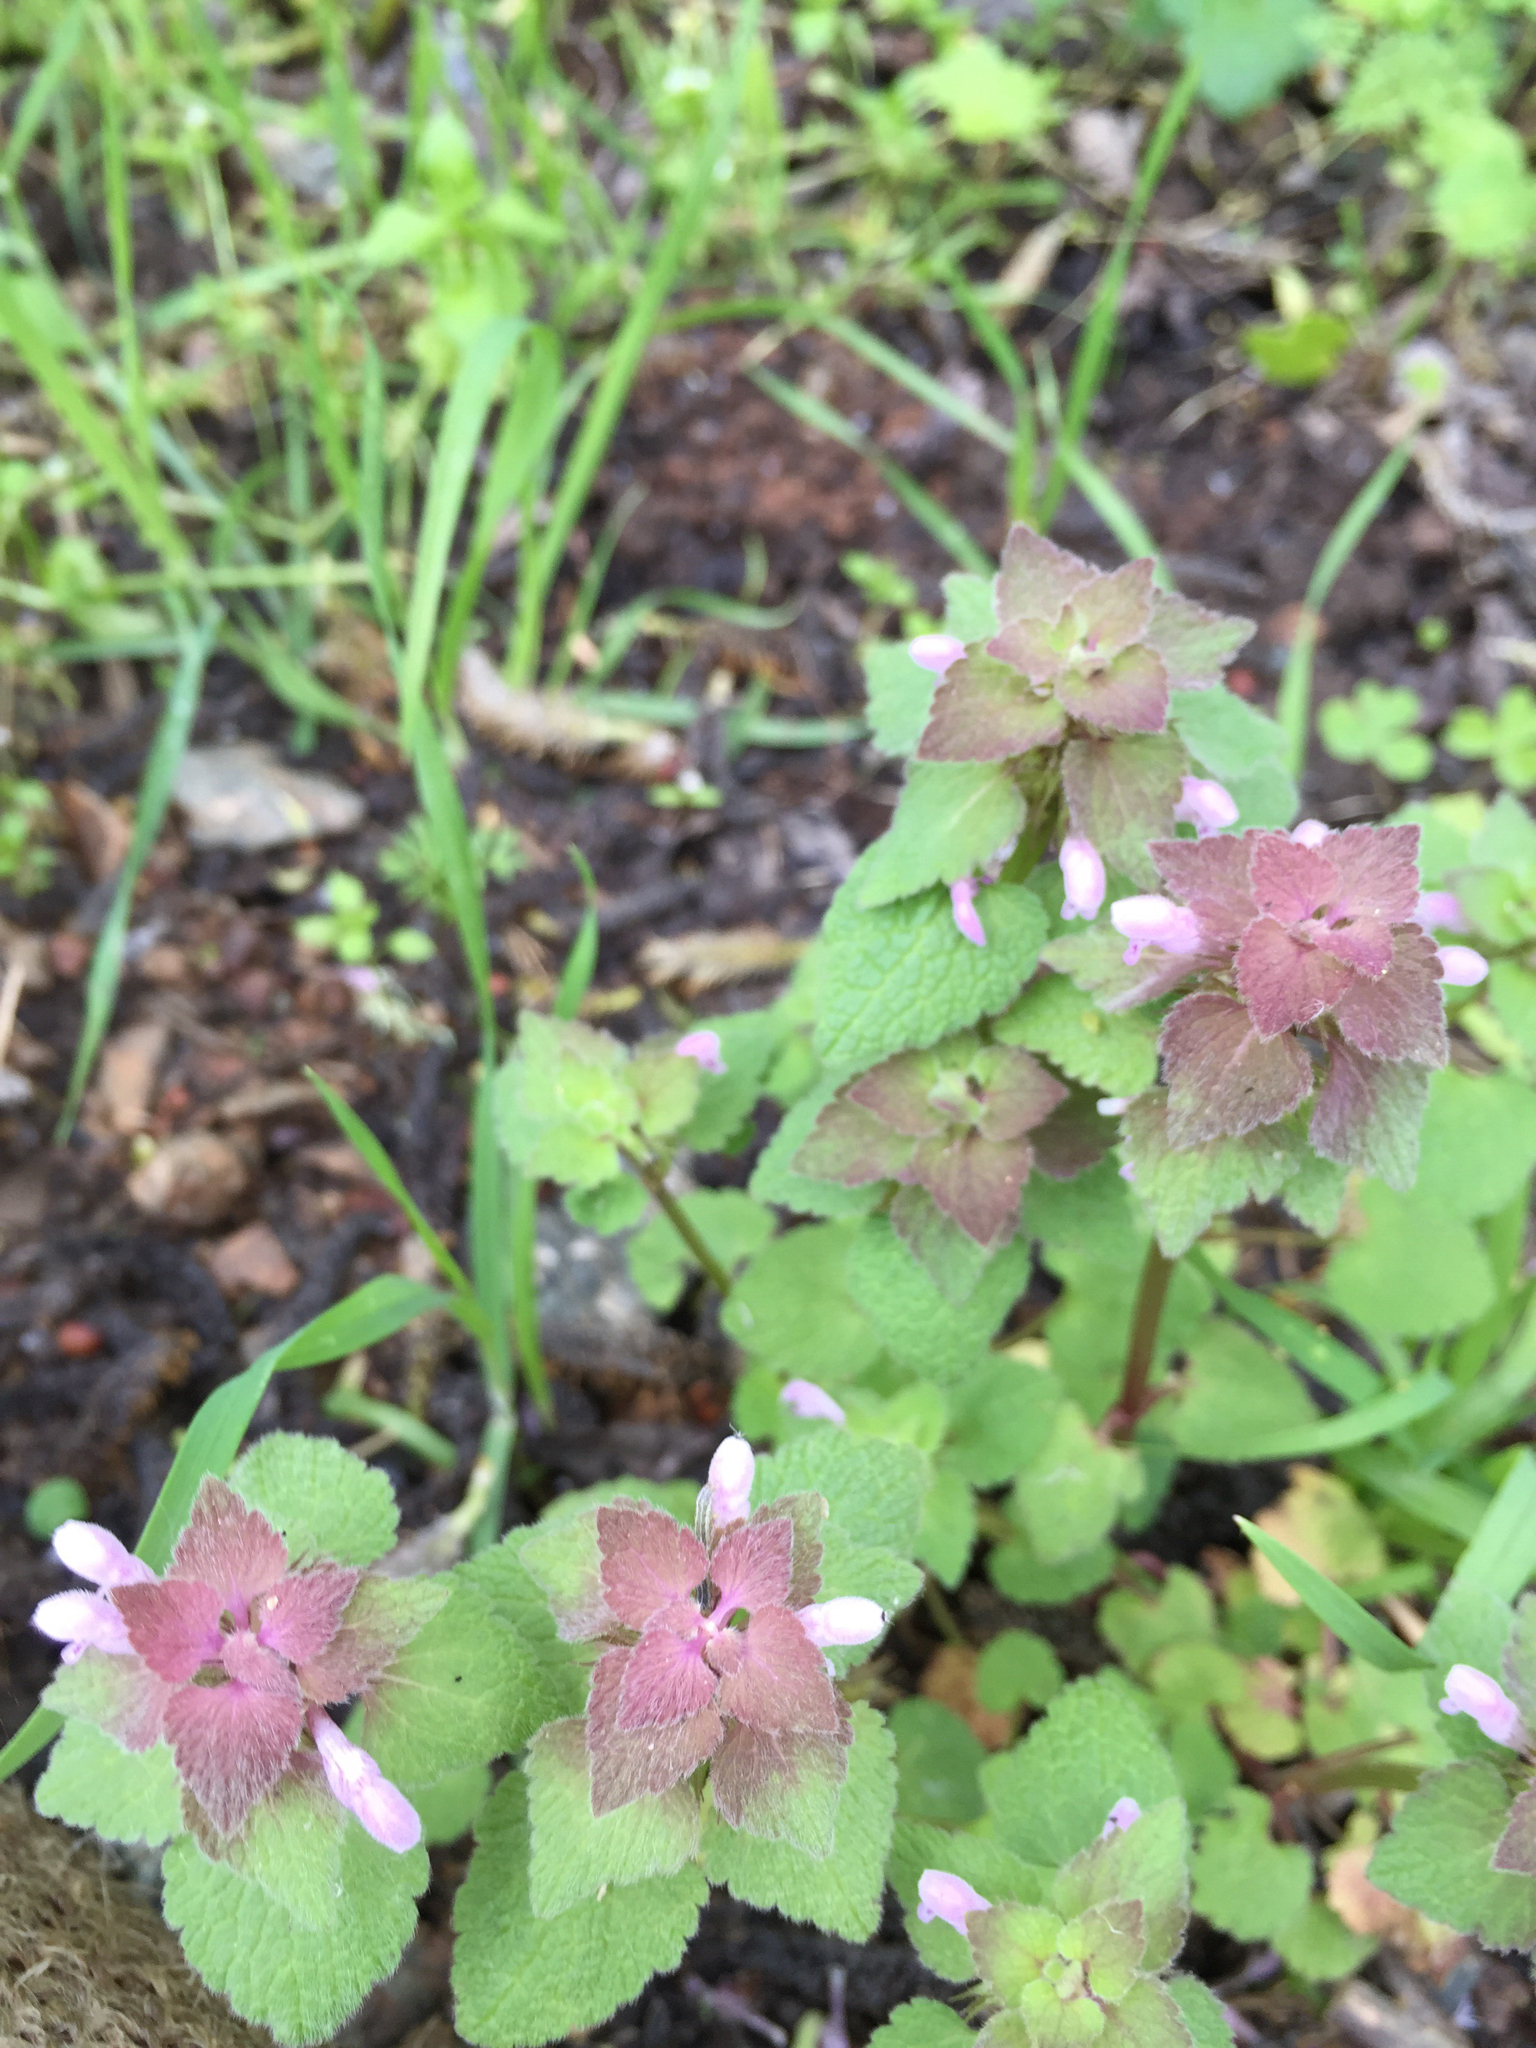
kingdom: Plantae
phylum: Tracheophyta
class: Magnoliopsida
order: Lamiales
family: Lamiaceae
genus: Lamium
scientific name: Lamium purpureum
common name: Red dead-nettle
